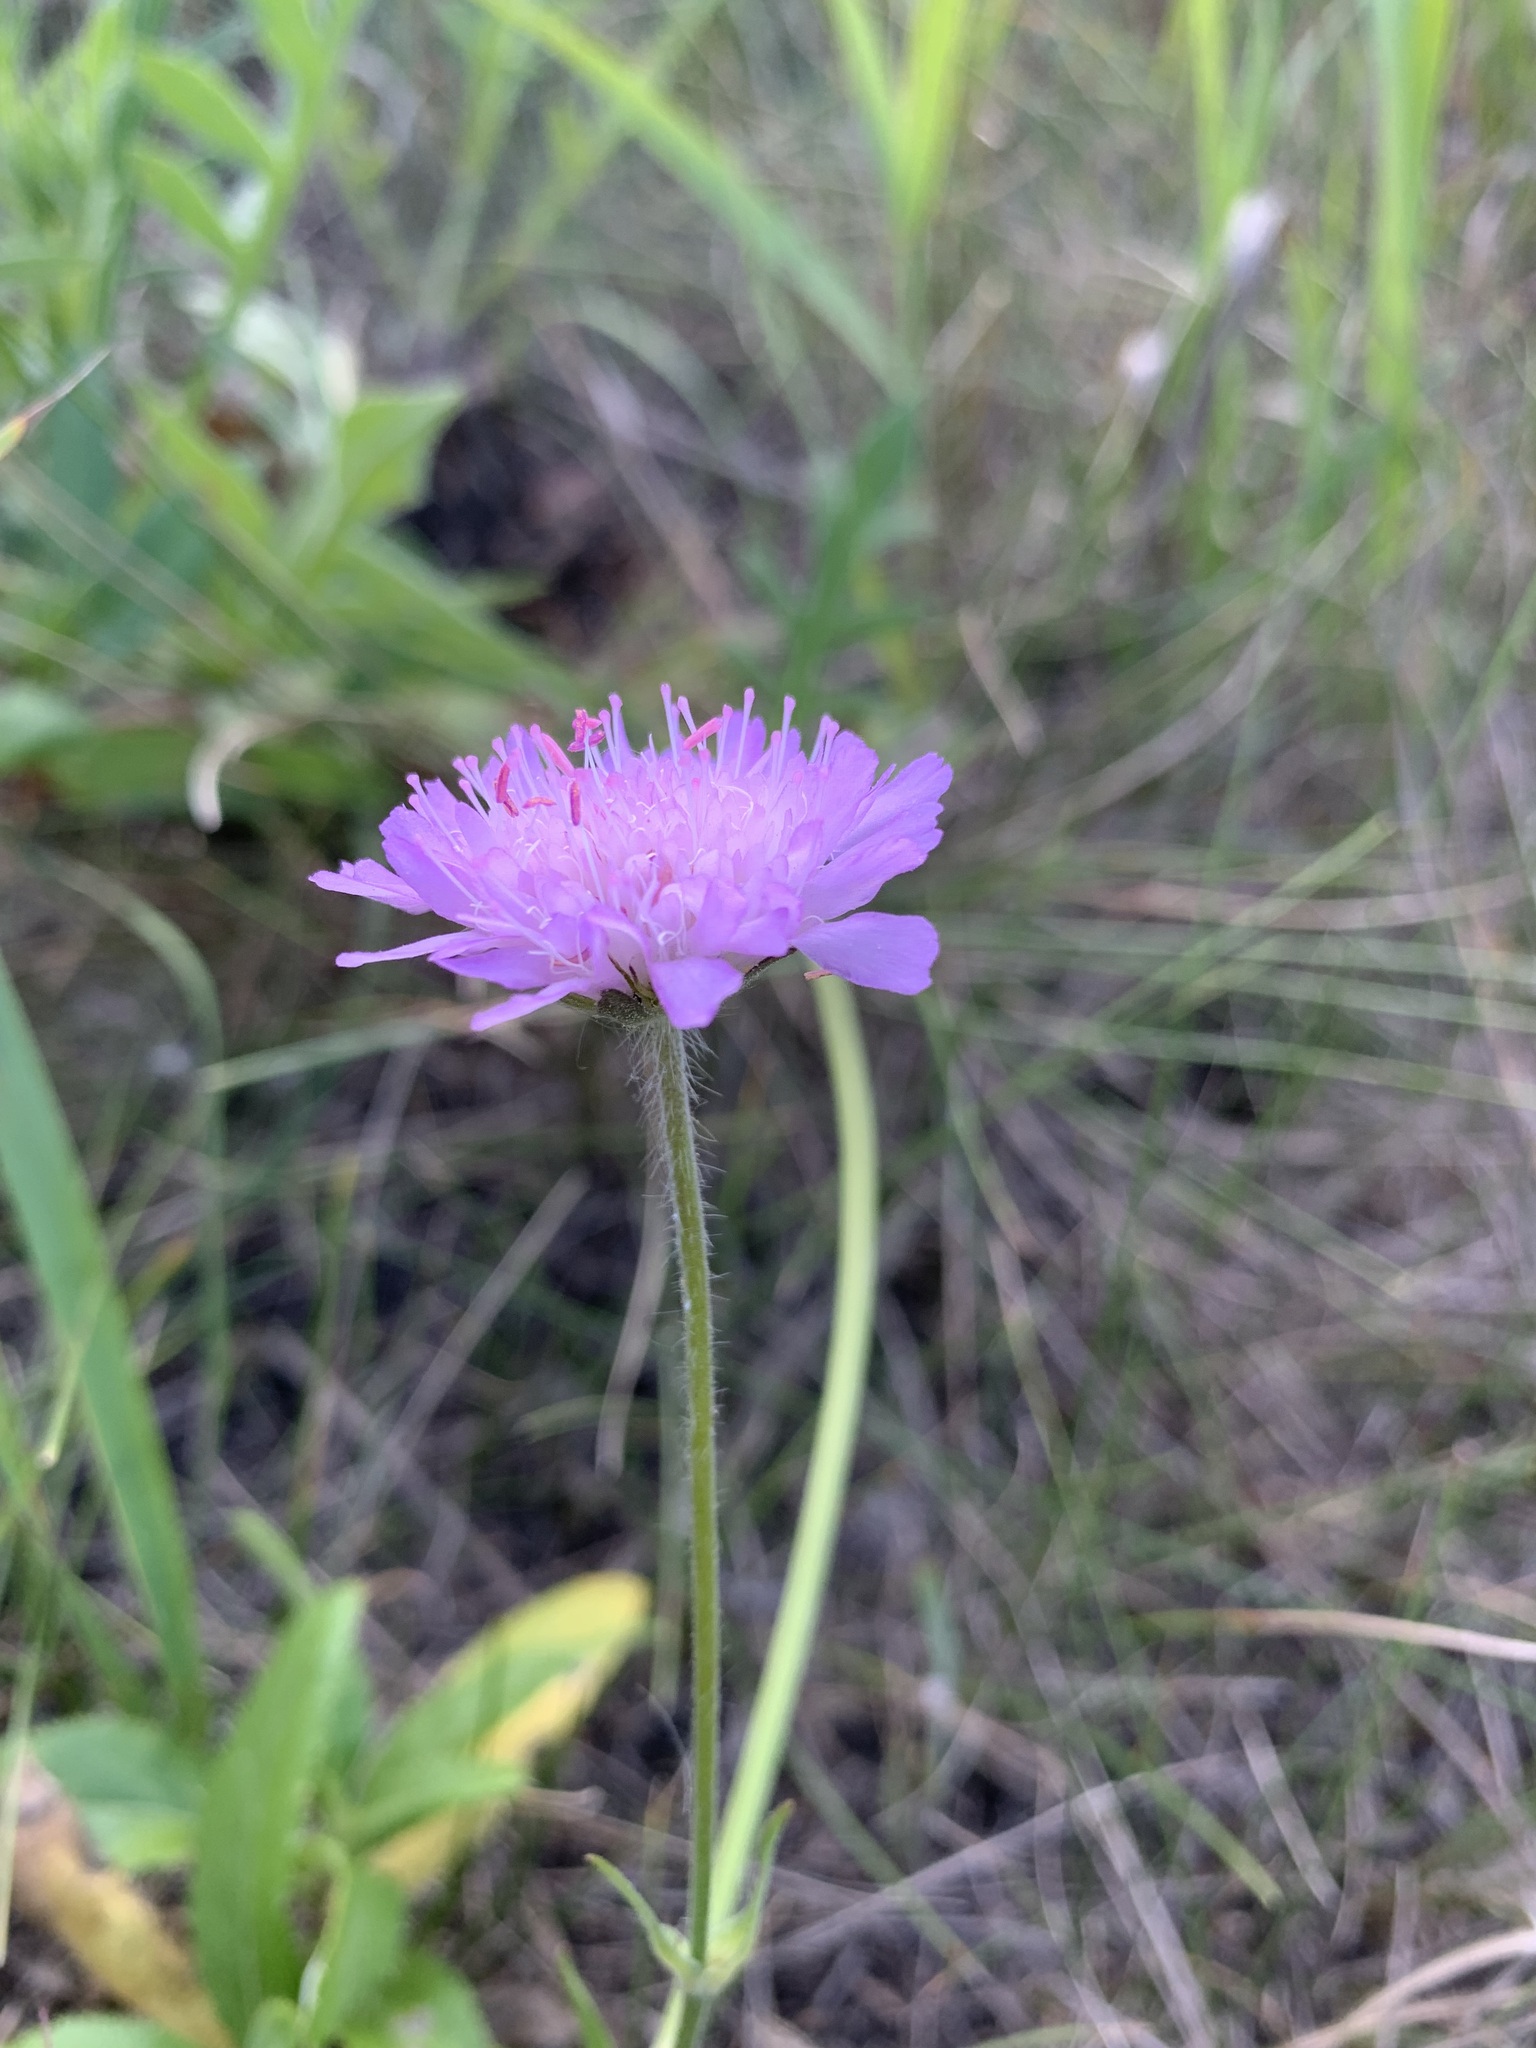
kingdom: Plantae
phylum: Tracheophyta
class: Magnoliopsida
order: Dipsacales
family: Caprifoliaceae
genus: Knautia
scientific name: Knautia arvensis
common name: Field scabiosa
